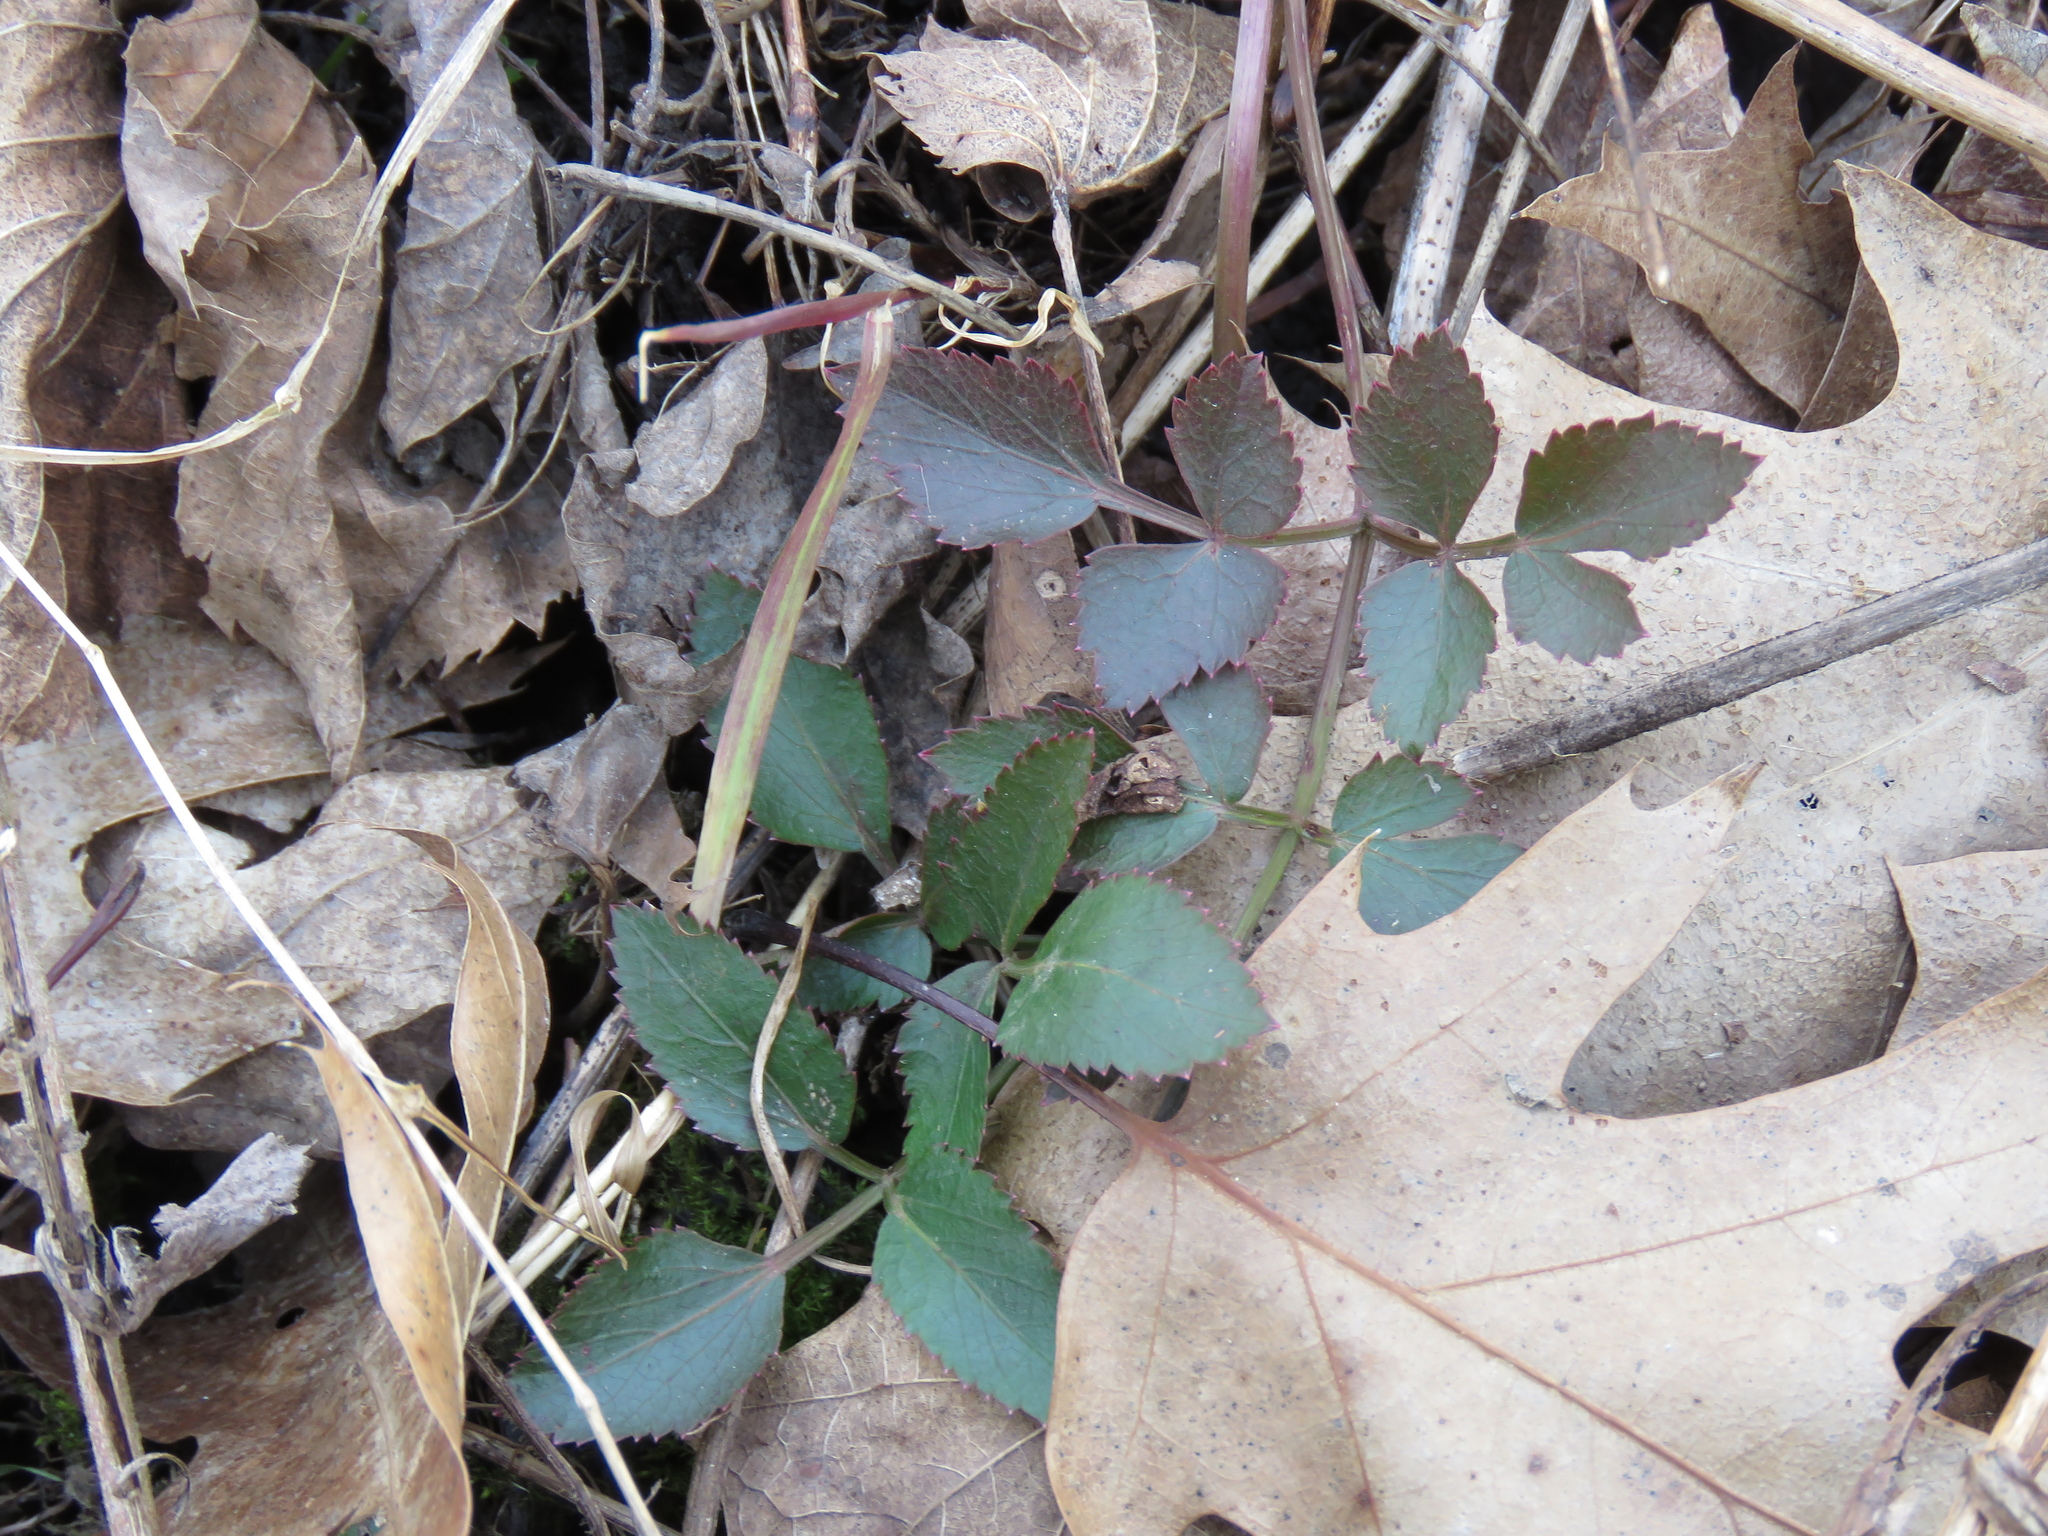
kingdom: Plantae
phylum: Tracheophyta
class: Magnoliopsida
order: Apiales
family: Apiaceae
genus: Zizia
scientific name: Zizia aurea
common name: Golden alexanders
